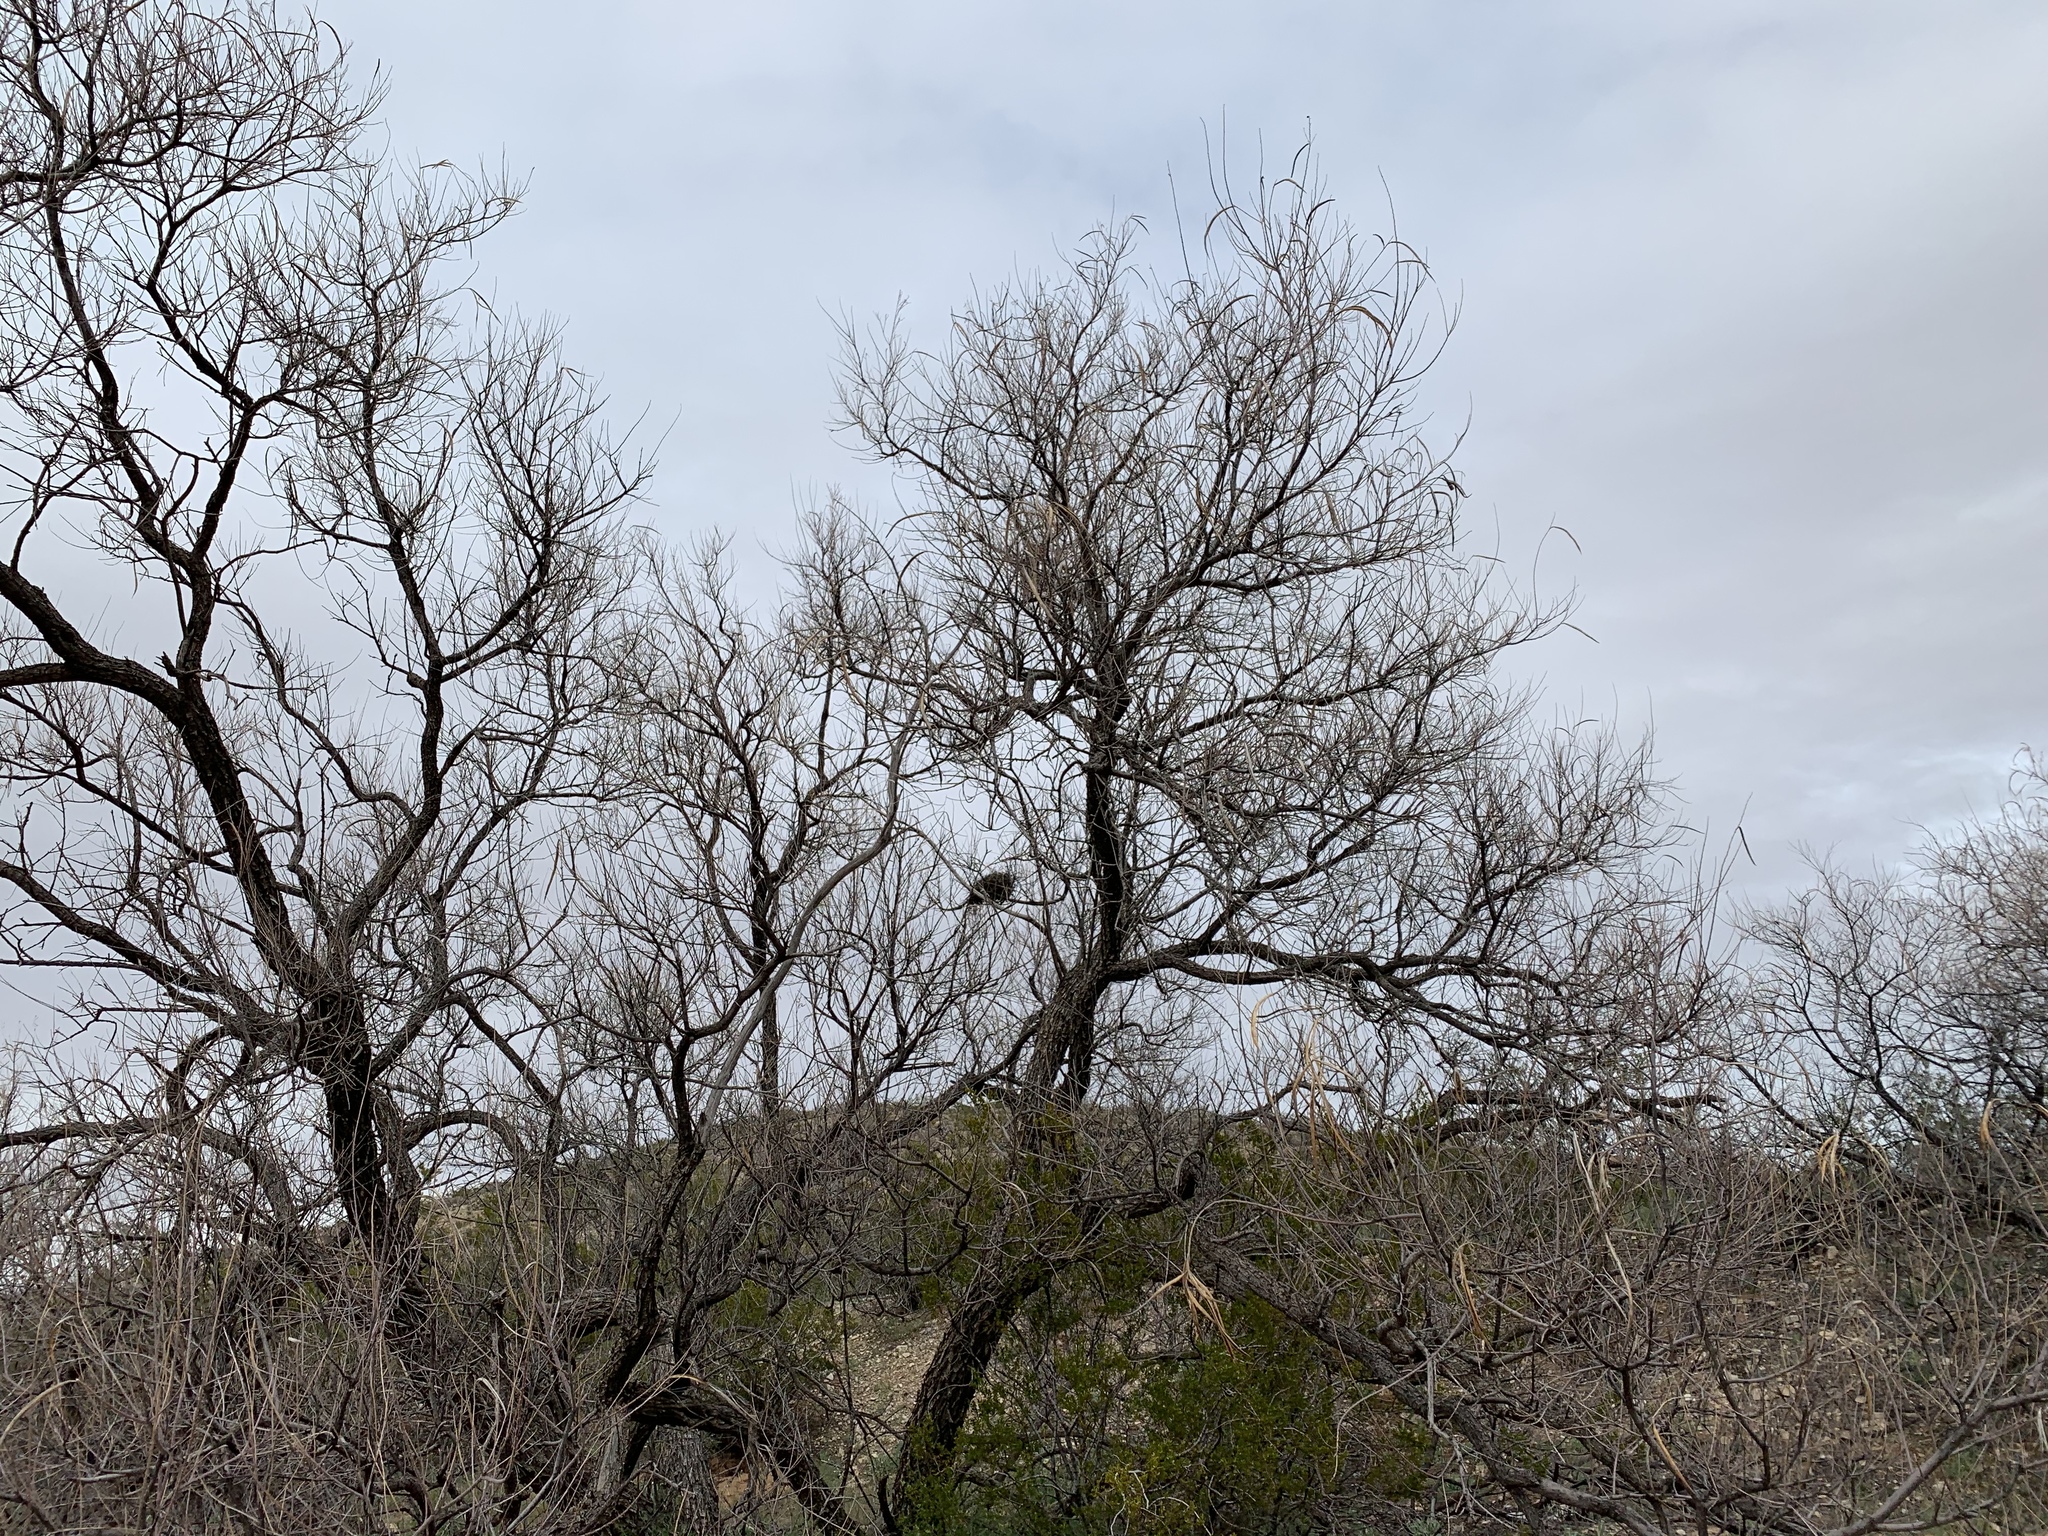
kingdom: Plantae
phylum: Tracheophyta
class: Magnoliopsida
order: Lamiales
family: Bignoniaceae
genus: Chilopsis
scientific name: Chilopsis linearis
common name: Desert-willow
